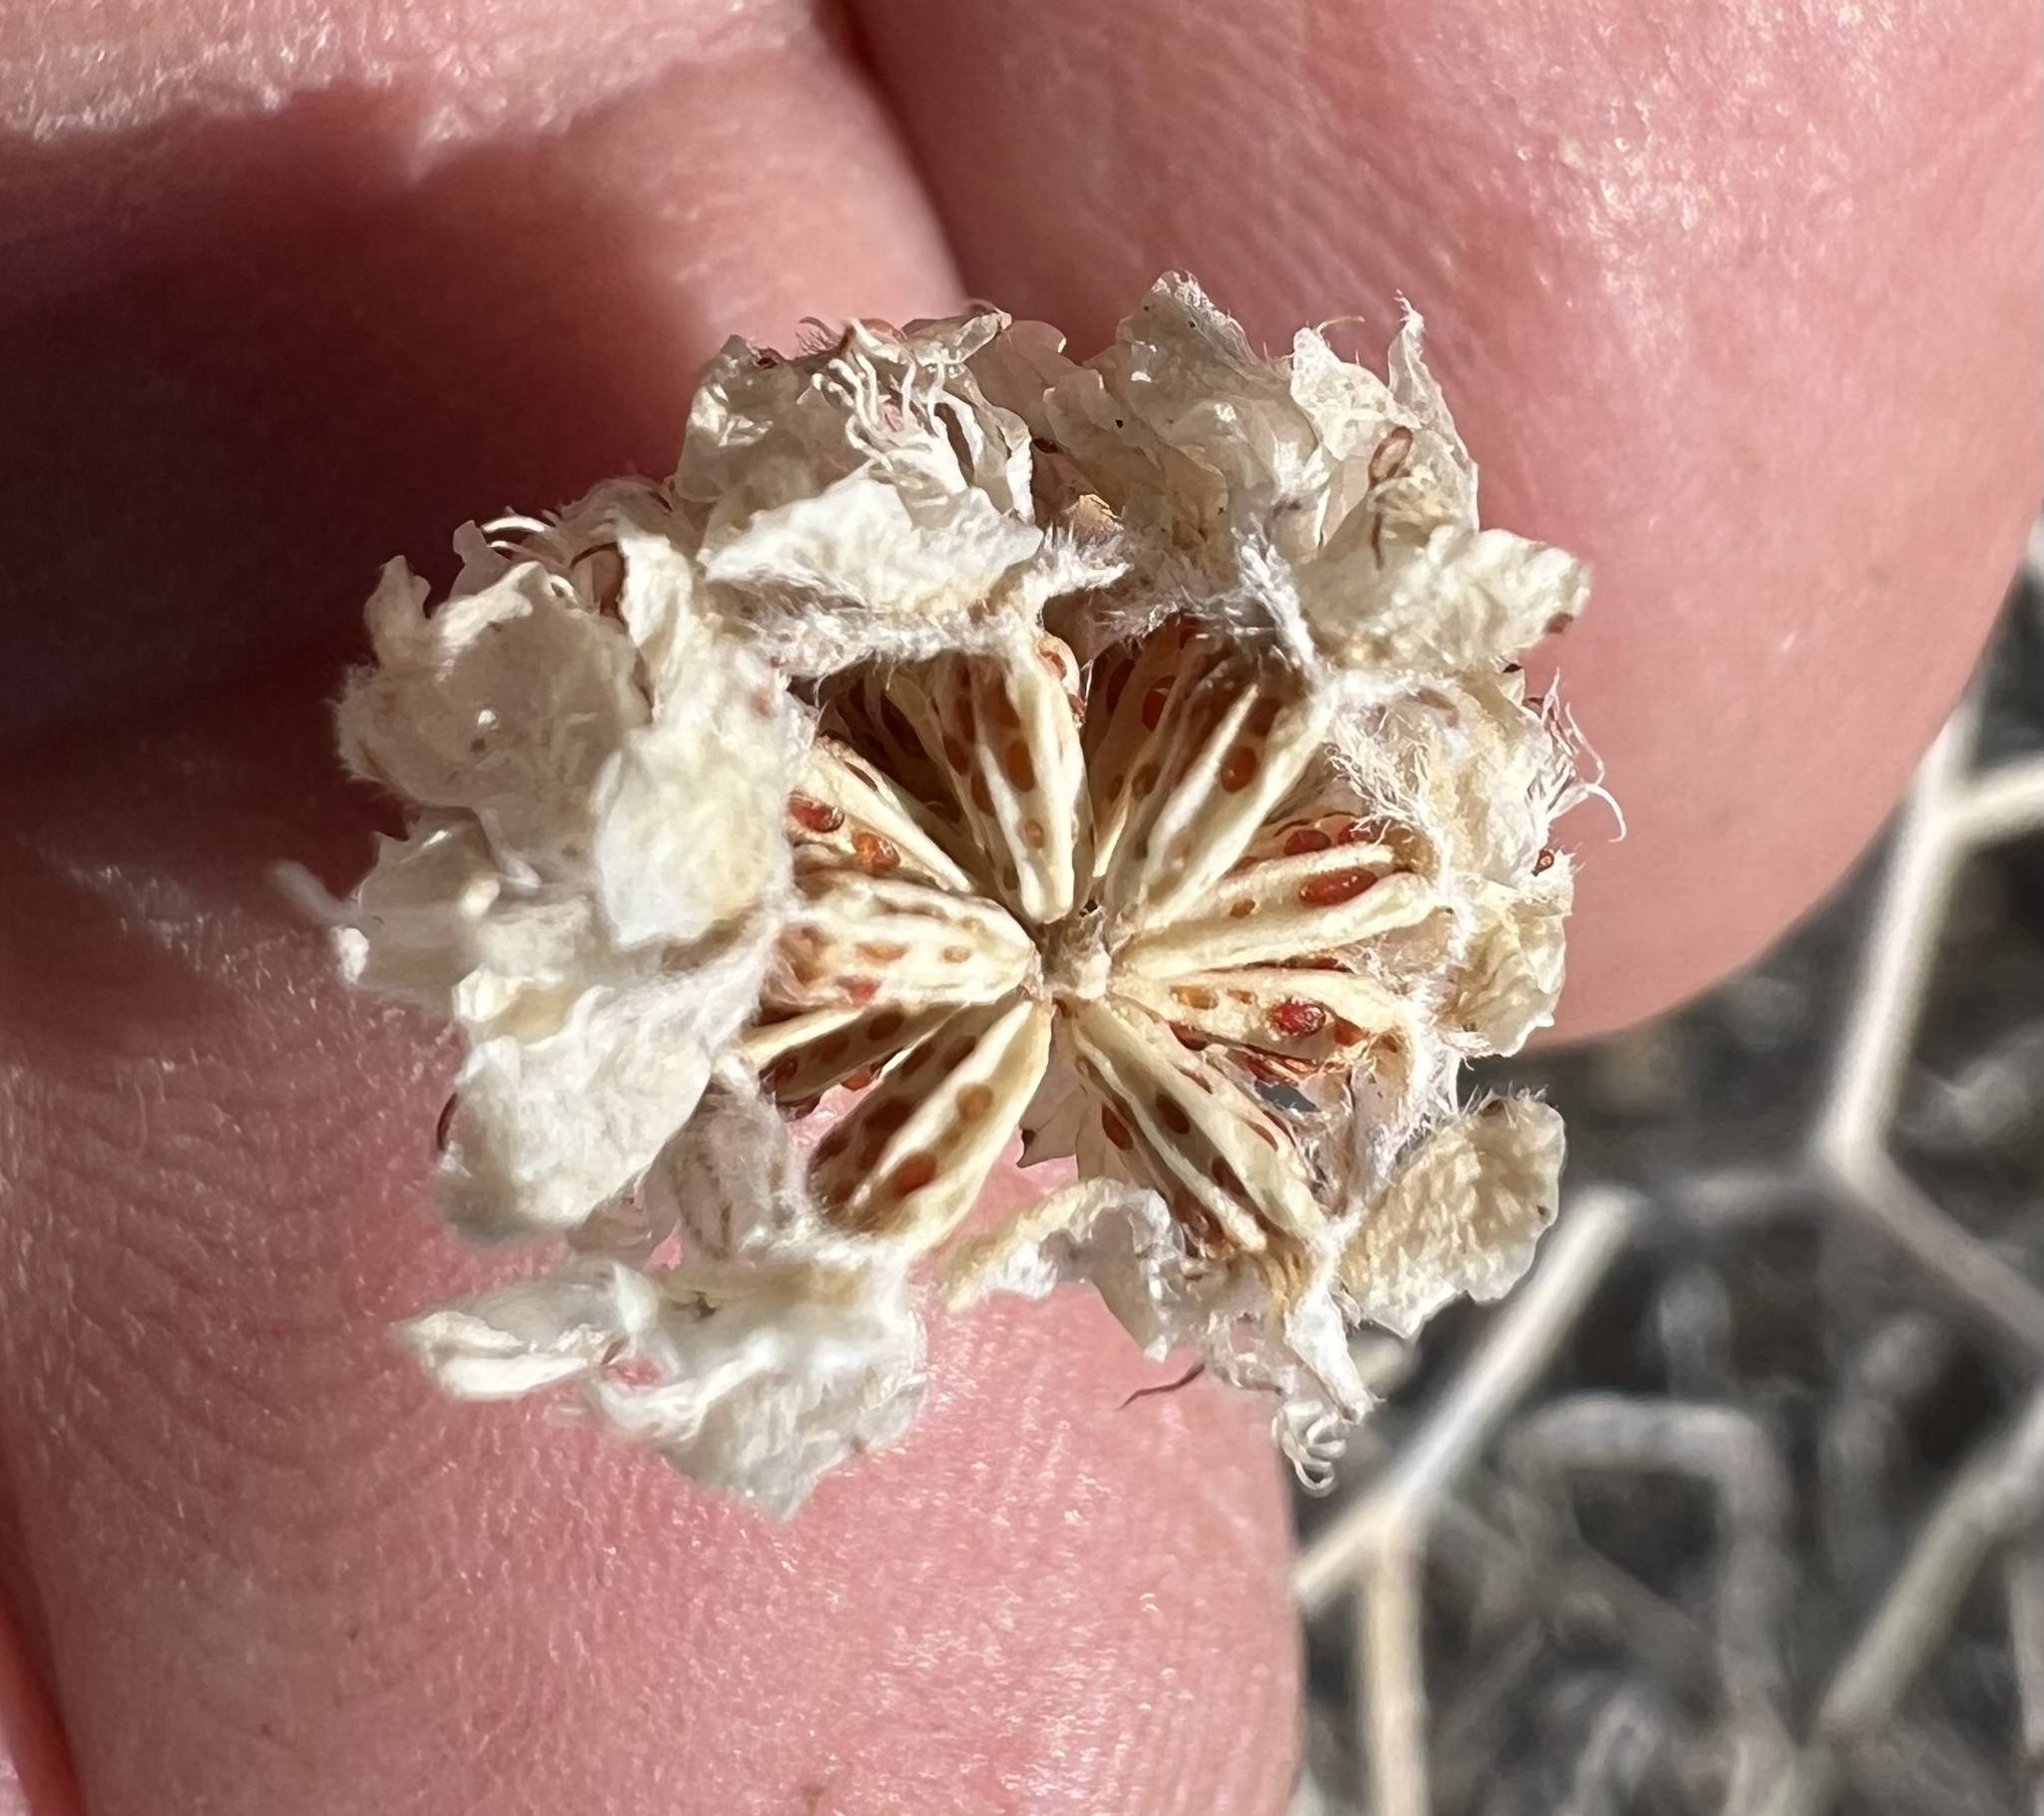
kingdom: Plantae
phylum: Tracheophyta
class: Magnoliopsida
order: Fabales
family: Fabaceae
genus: Psorothamnus
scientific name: Psorothamnus polydenius
